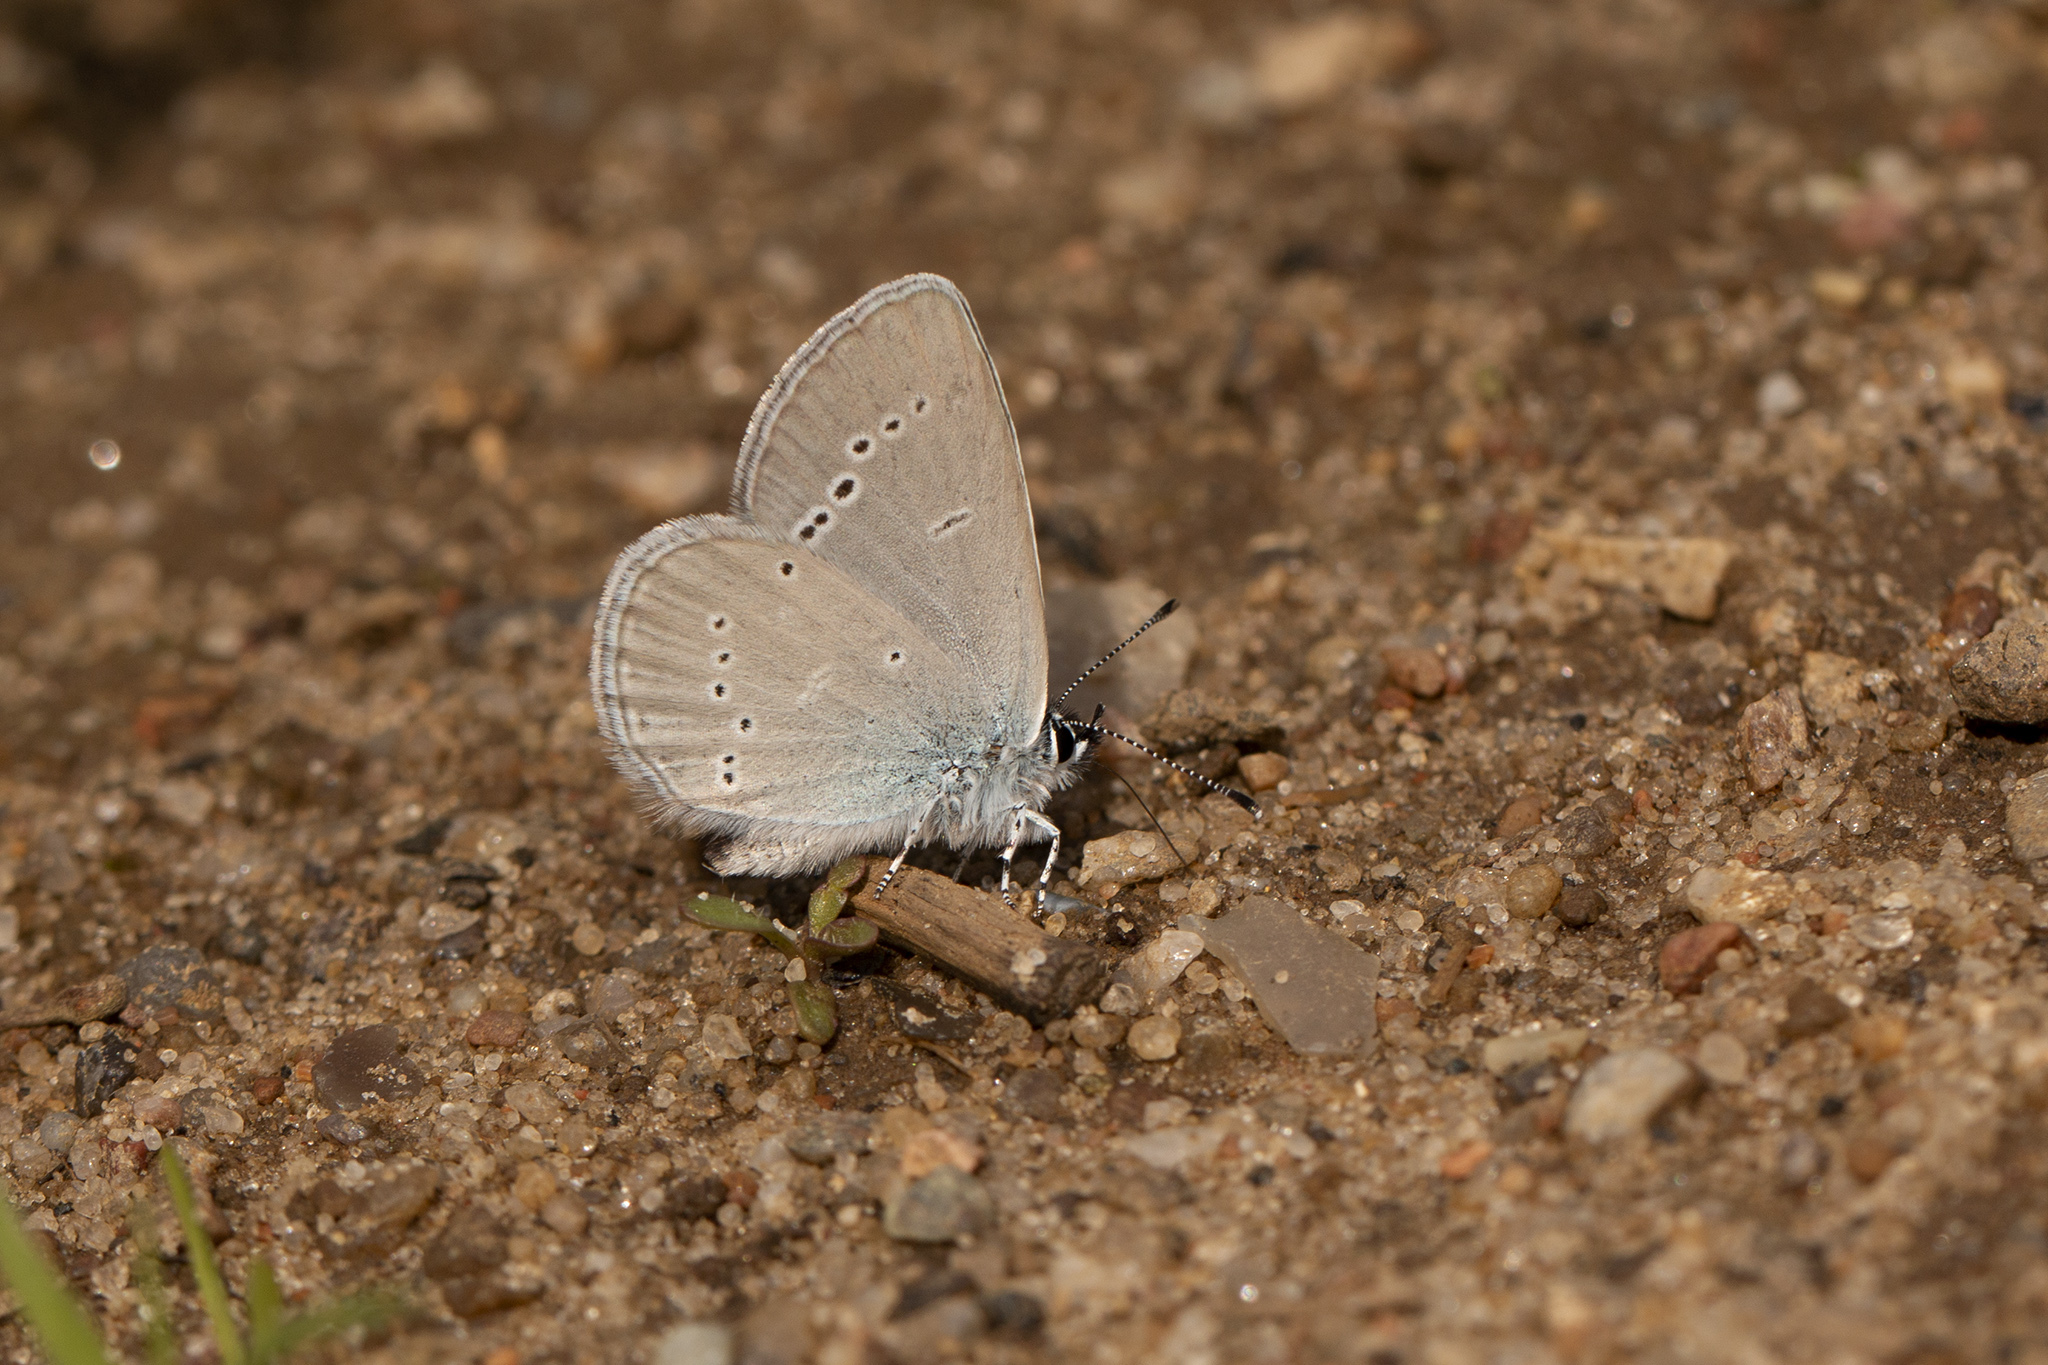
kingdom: Animalia
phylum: Arthropoda
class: Insecta
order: Lepidoptera
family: Lycaenidae
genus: Cupido
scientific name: Cupido minimus
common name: Small blue
